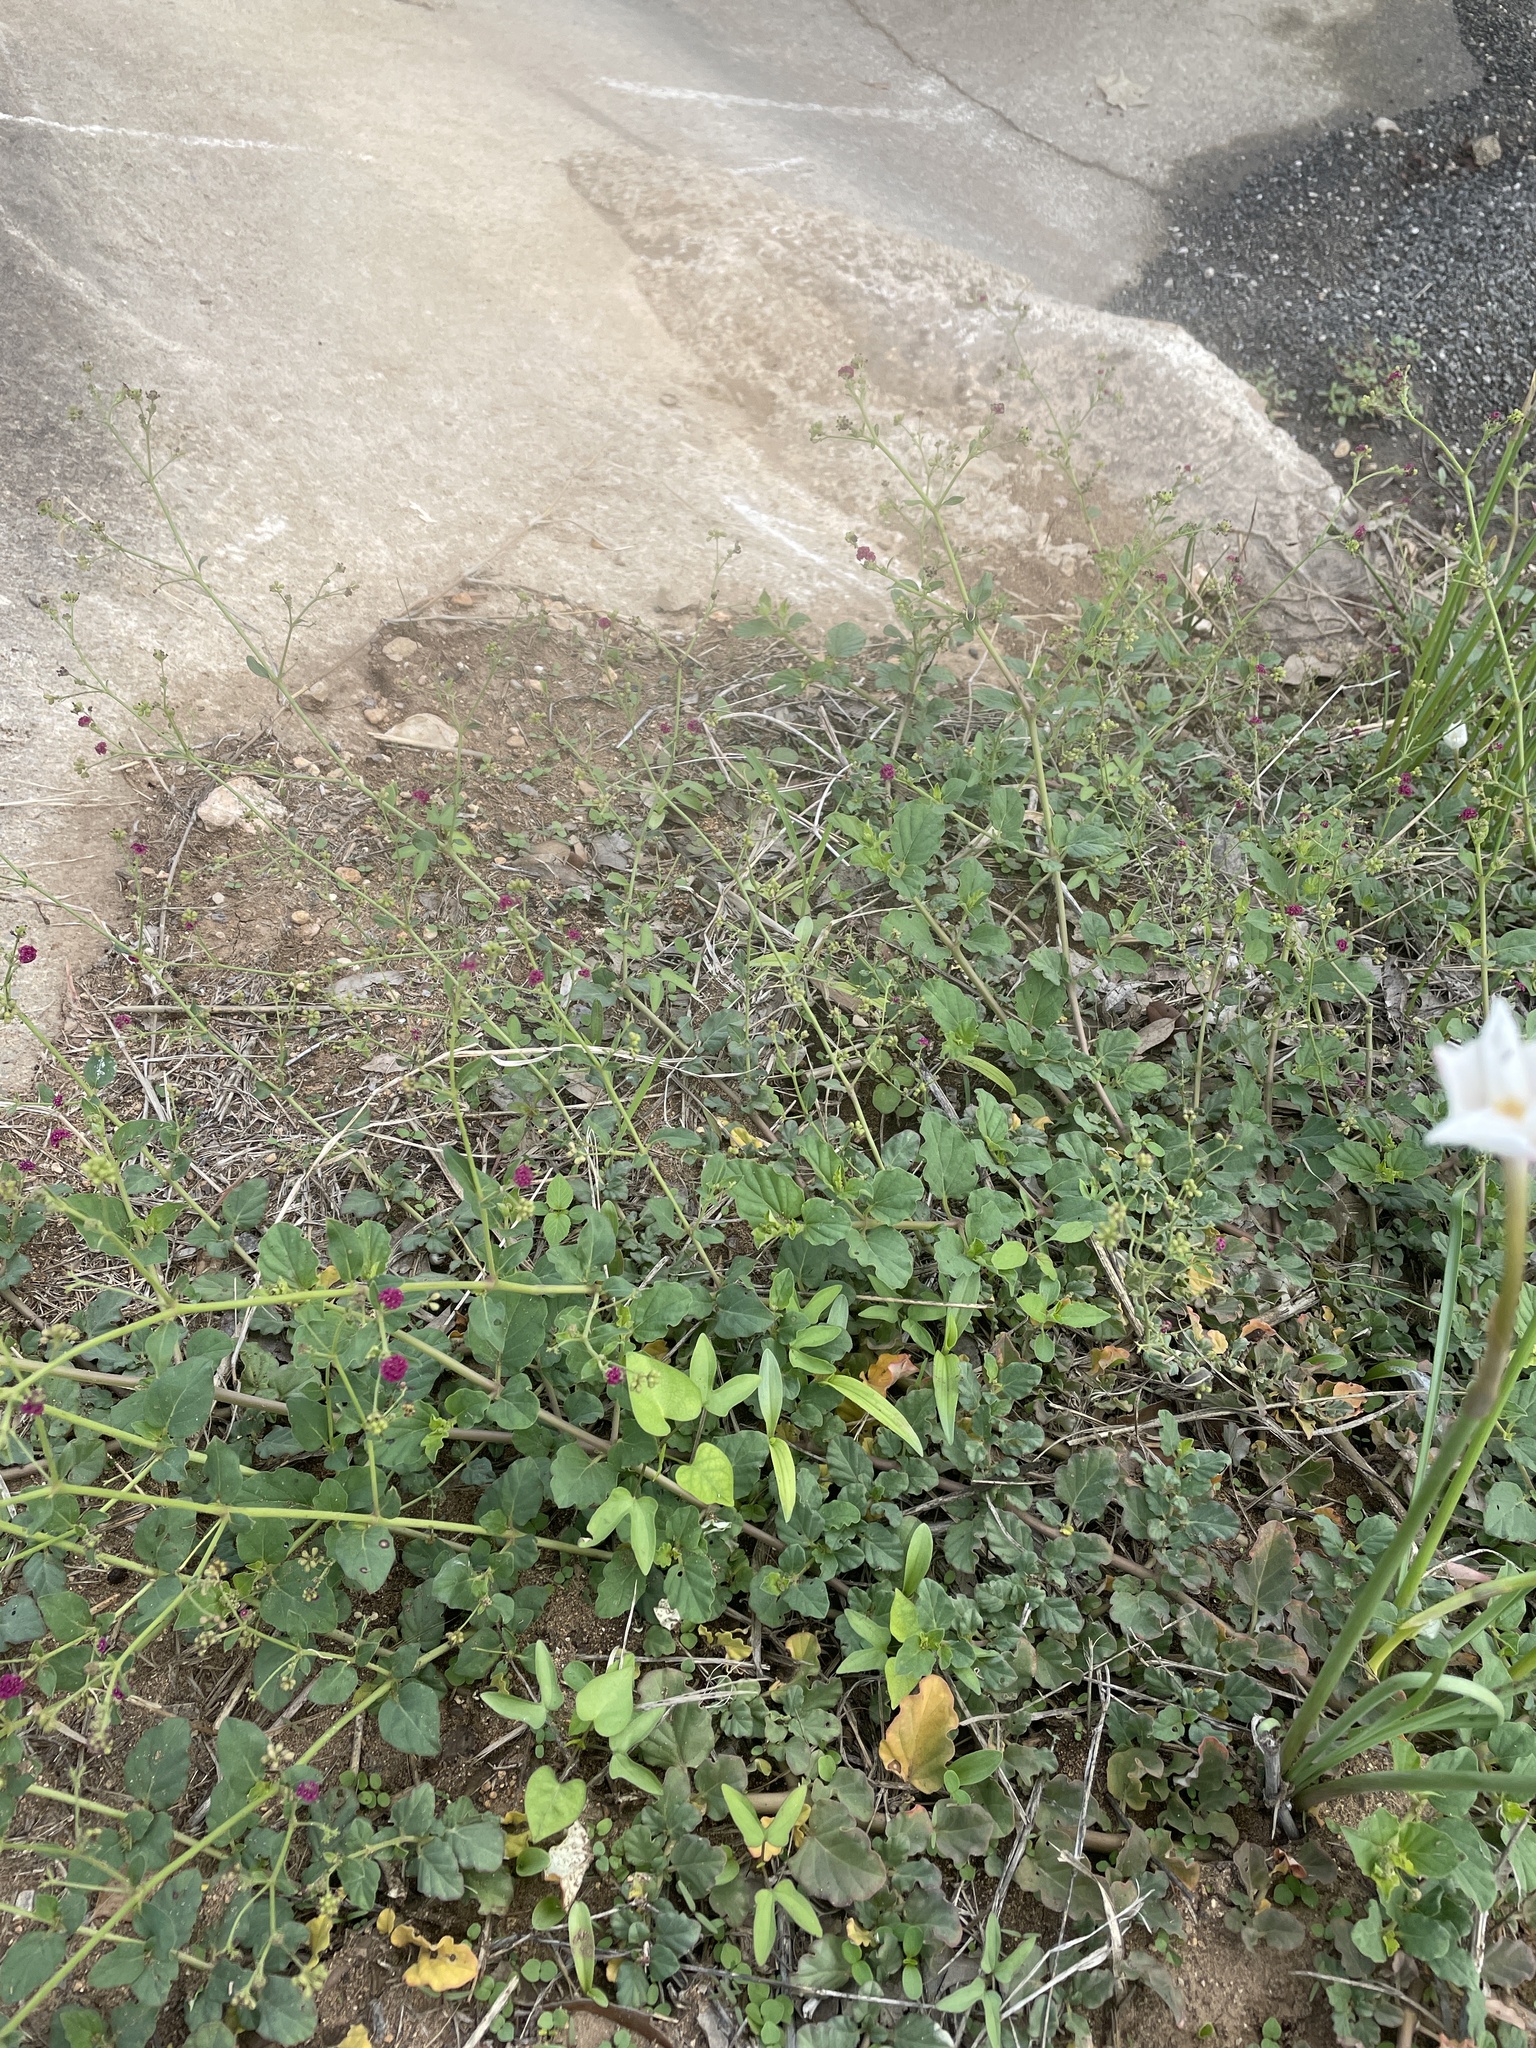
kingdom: Plantae
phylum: Tracheophyta
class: Magnoliopsida
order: Caryophyllales
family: Nyctaginaceae
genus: Boerhavia
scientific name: Boerhavia coccinea
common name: Scarlet spiderling
